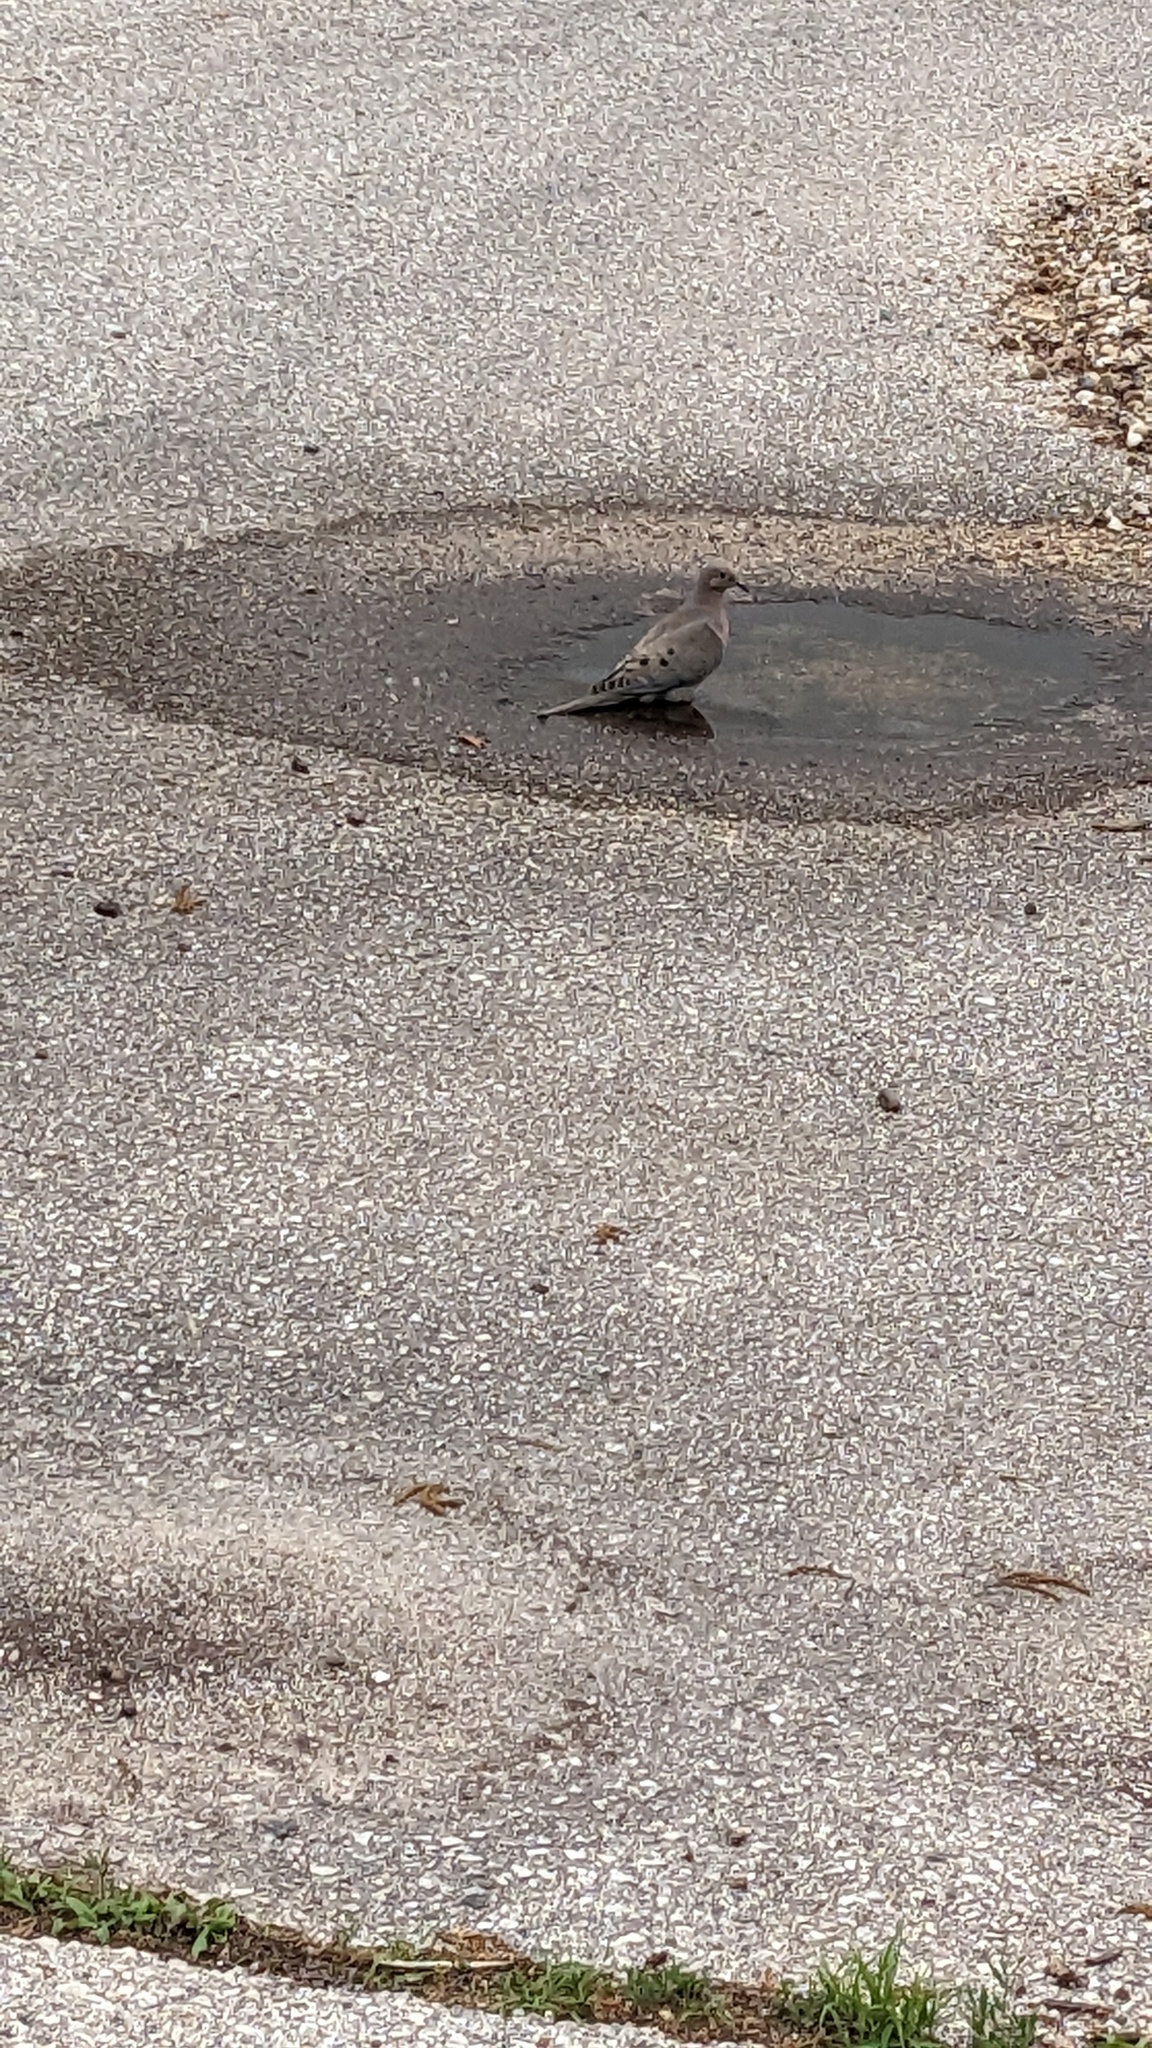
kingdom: Animalia
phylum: Chordata
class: Aves
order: Columbiformes
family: Columbidae
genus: Zenaida
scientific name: Zenaida macroura
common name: Mourning dove
